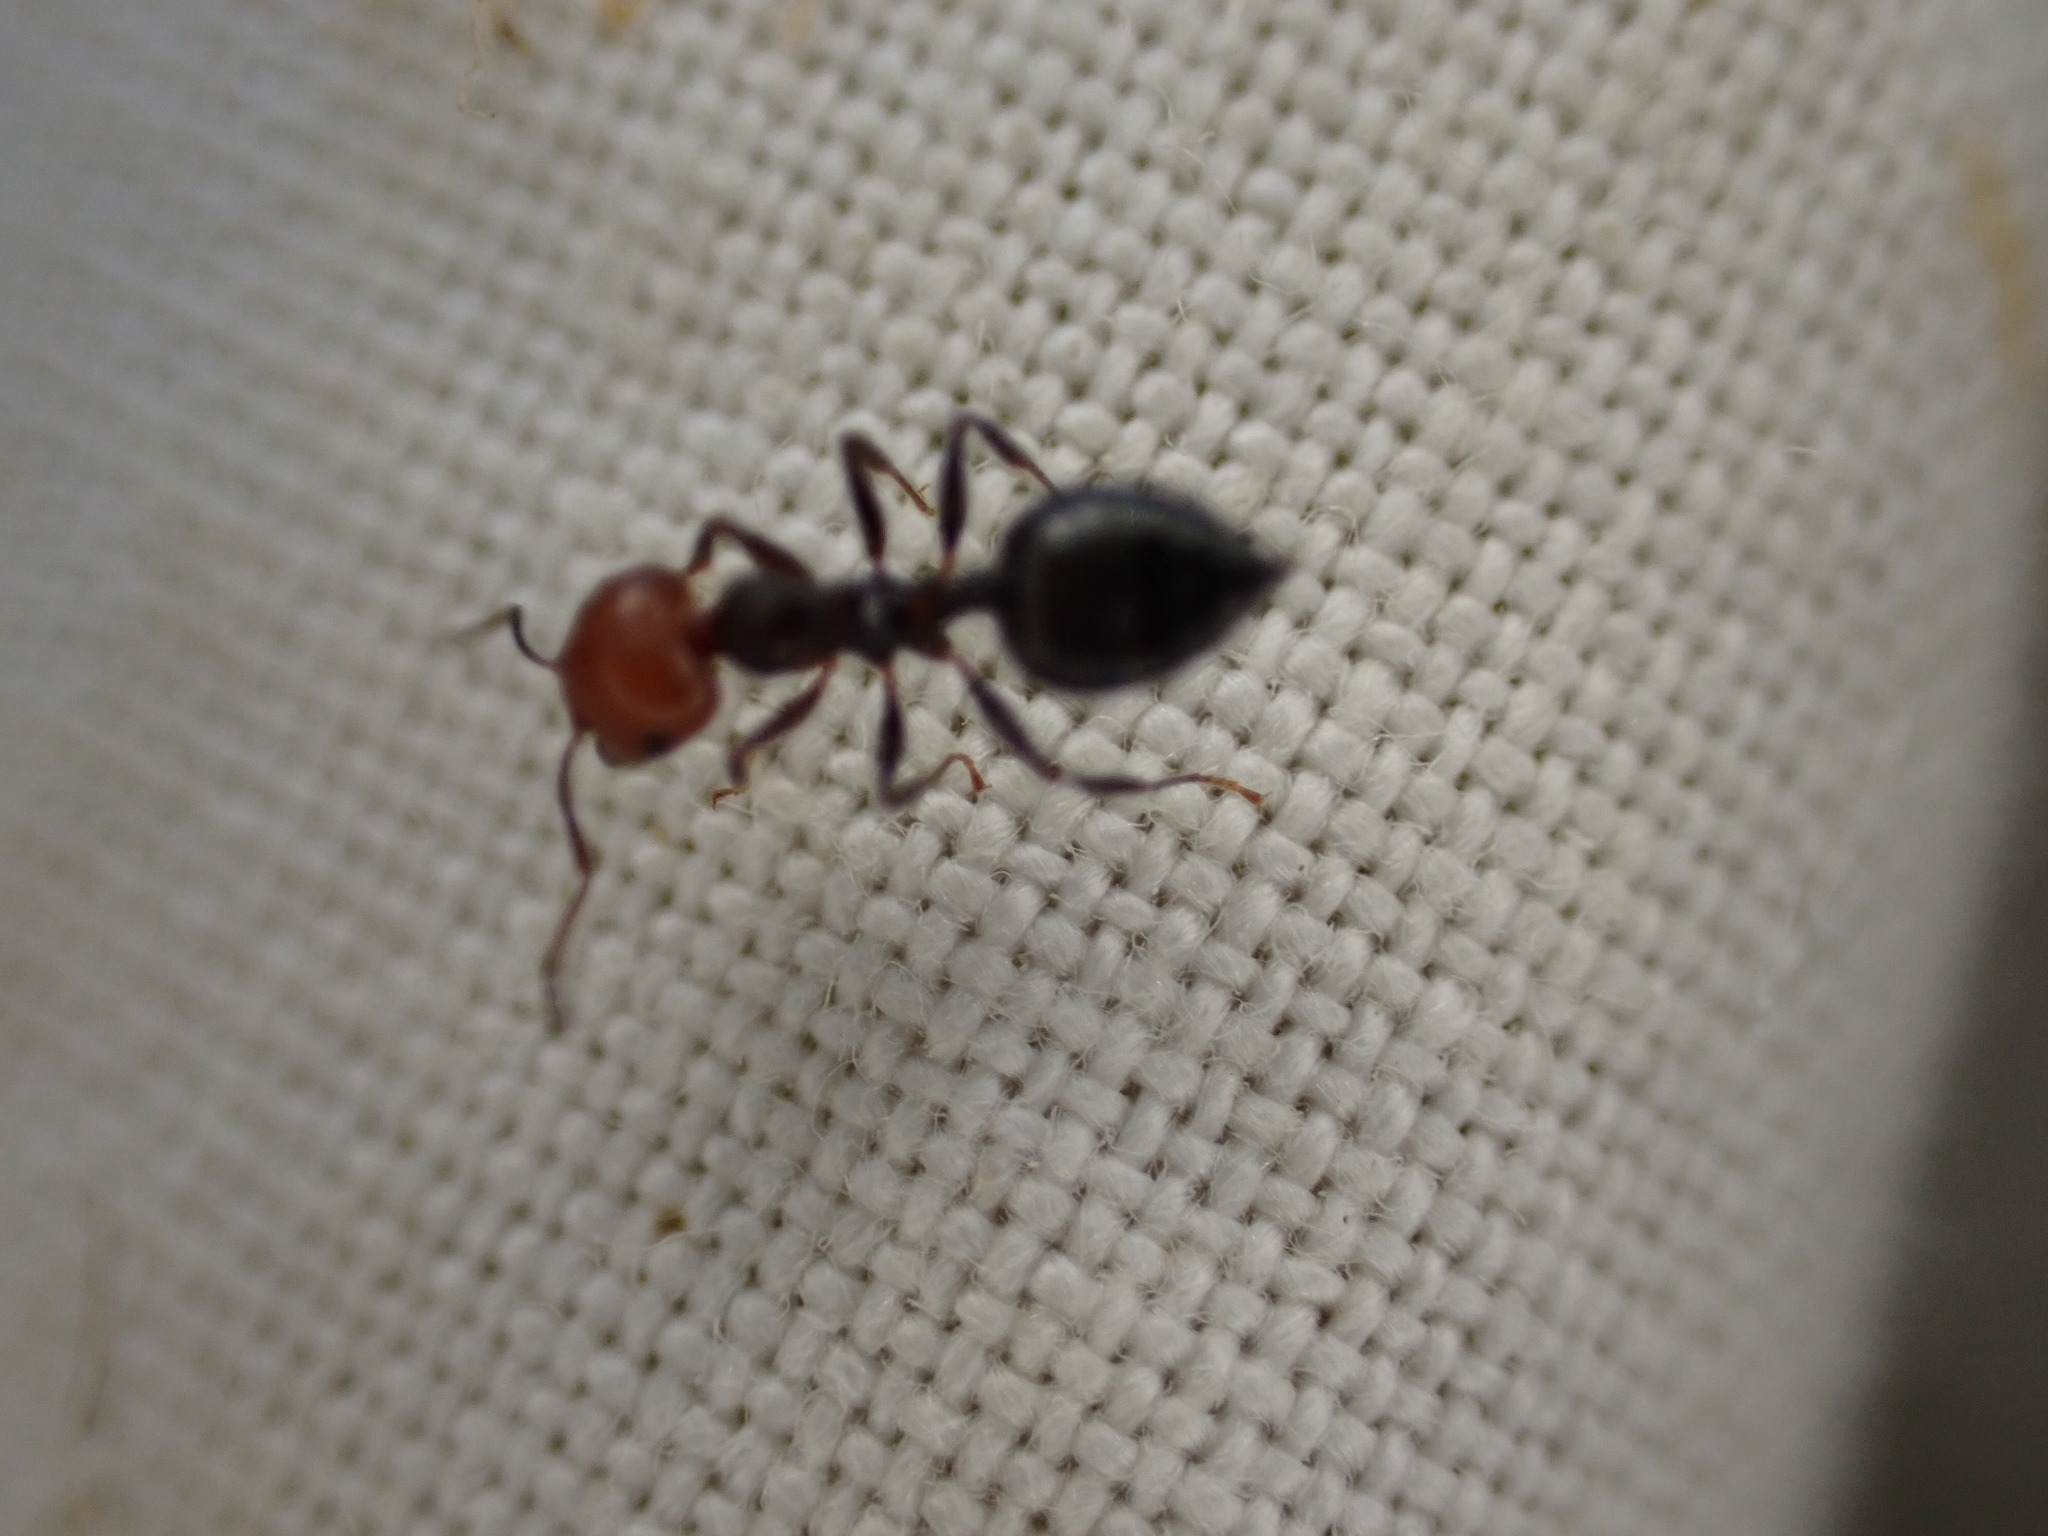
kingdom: Animalia
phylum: Arthropoda
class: Insecta
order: Hymenoptera
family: Formicidae
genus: Crematogaster
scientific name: Crematogaster scutellaris
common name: Fourmi du liège
